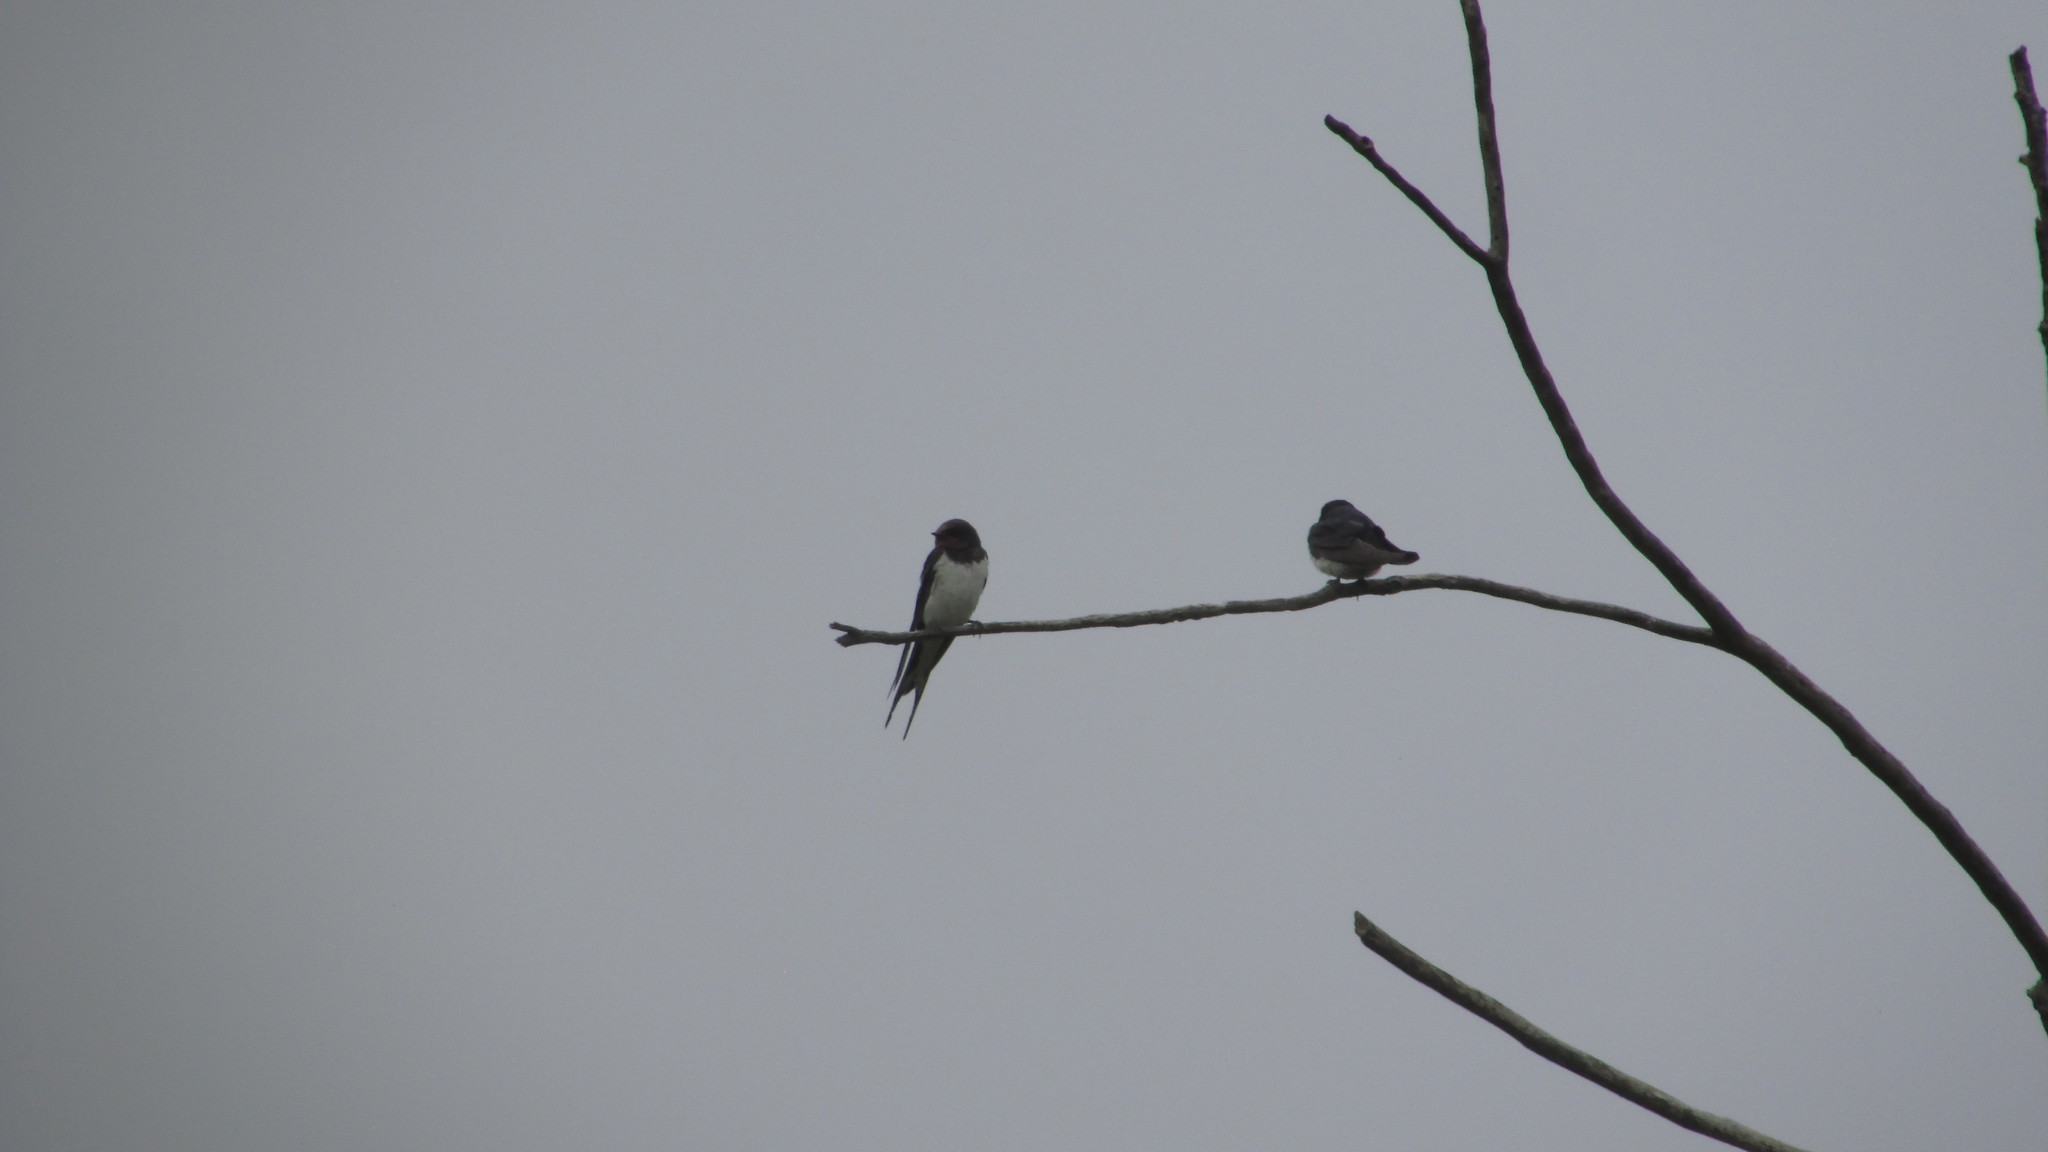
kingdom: Animalia
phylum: Chordata
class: Aves
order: Passeriformes
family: Hirundinidae
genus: Hirundo
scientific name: Hirundo rustica
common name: Barn swallow
